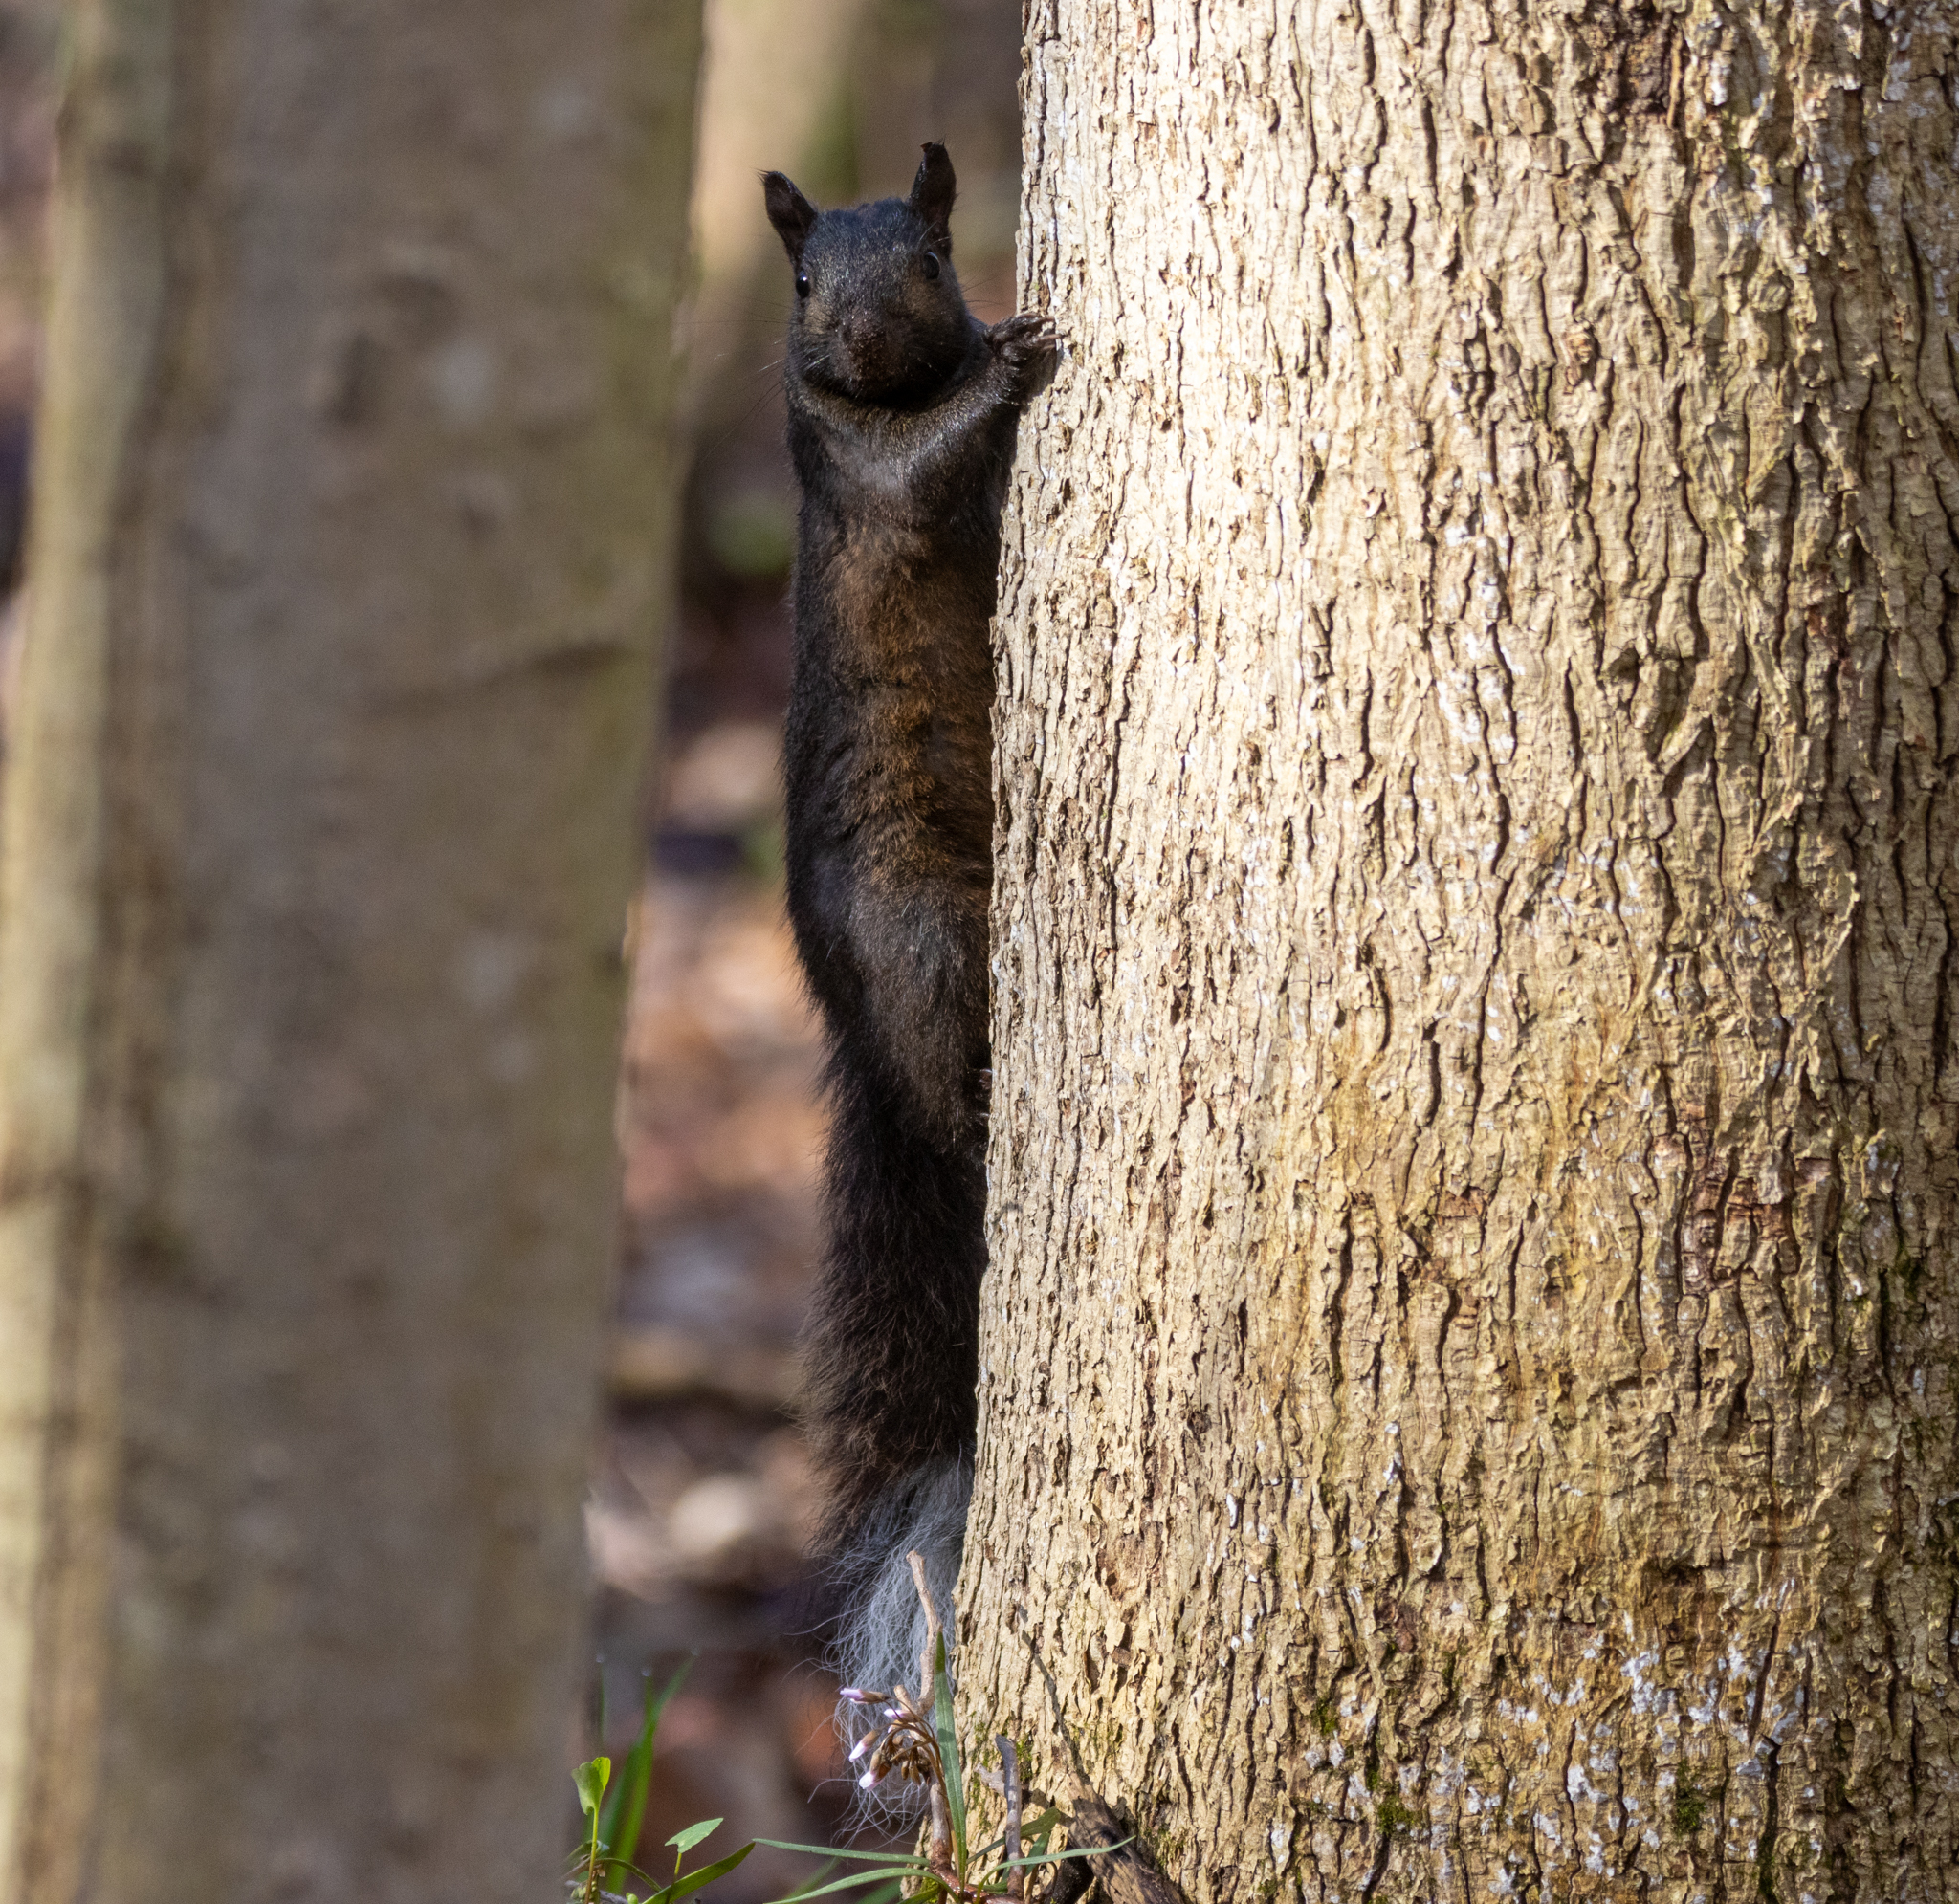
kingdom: Animalia
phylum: Chordata
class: Mammalia
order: Rodentia
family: Sciuridae
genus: Sciurus
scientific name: Sciurus carolinensis
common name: Eastern gray squirrel
